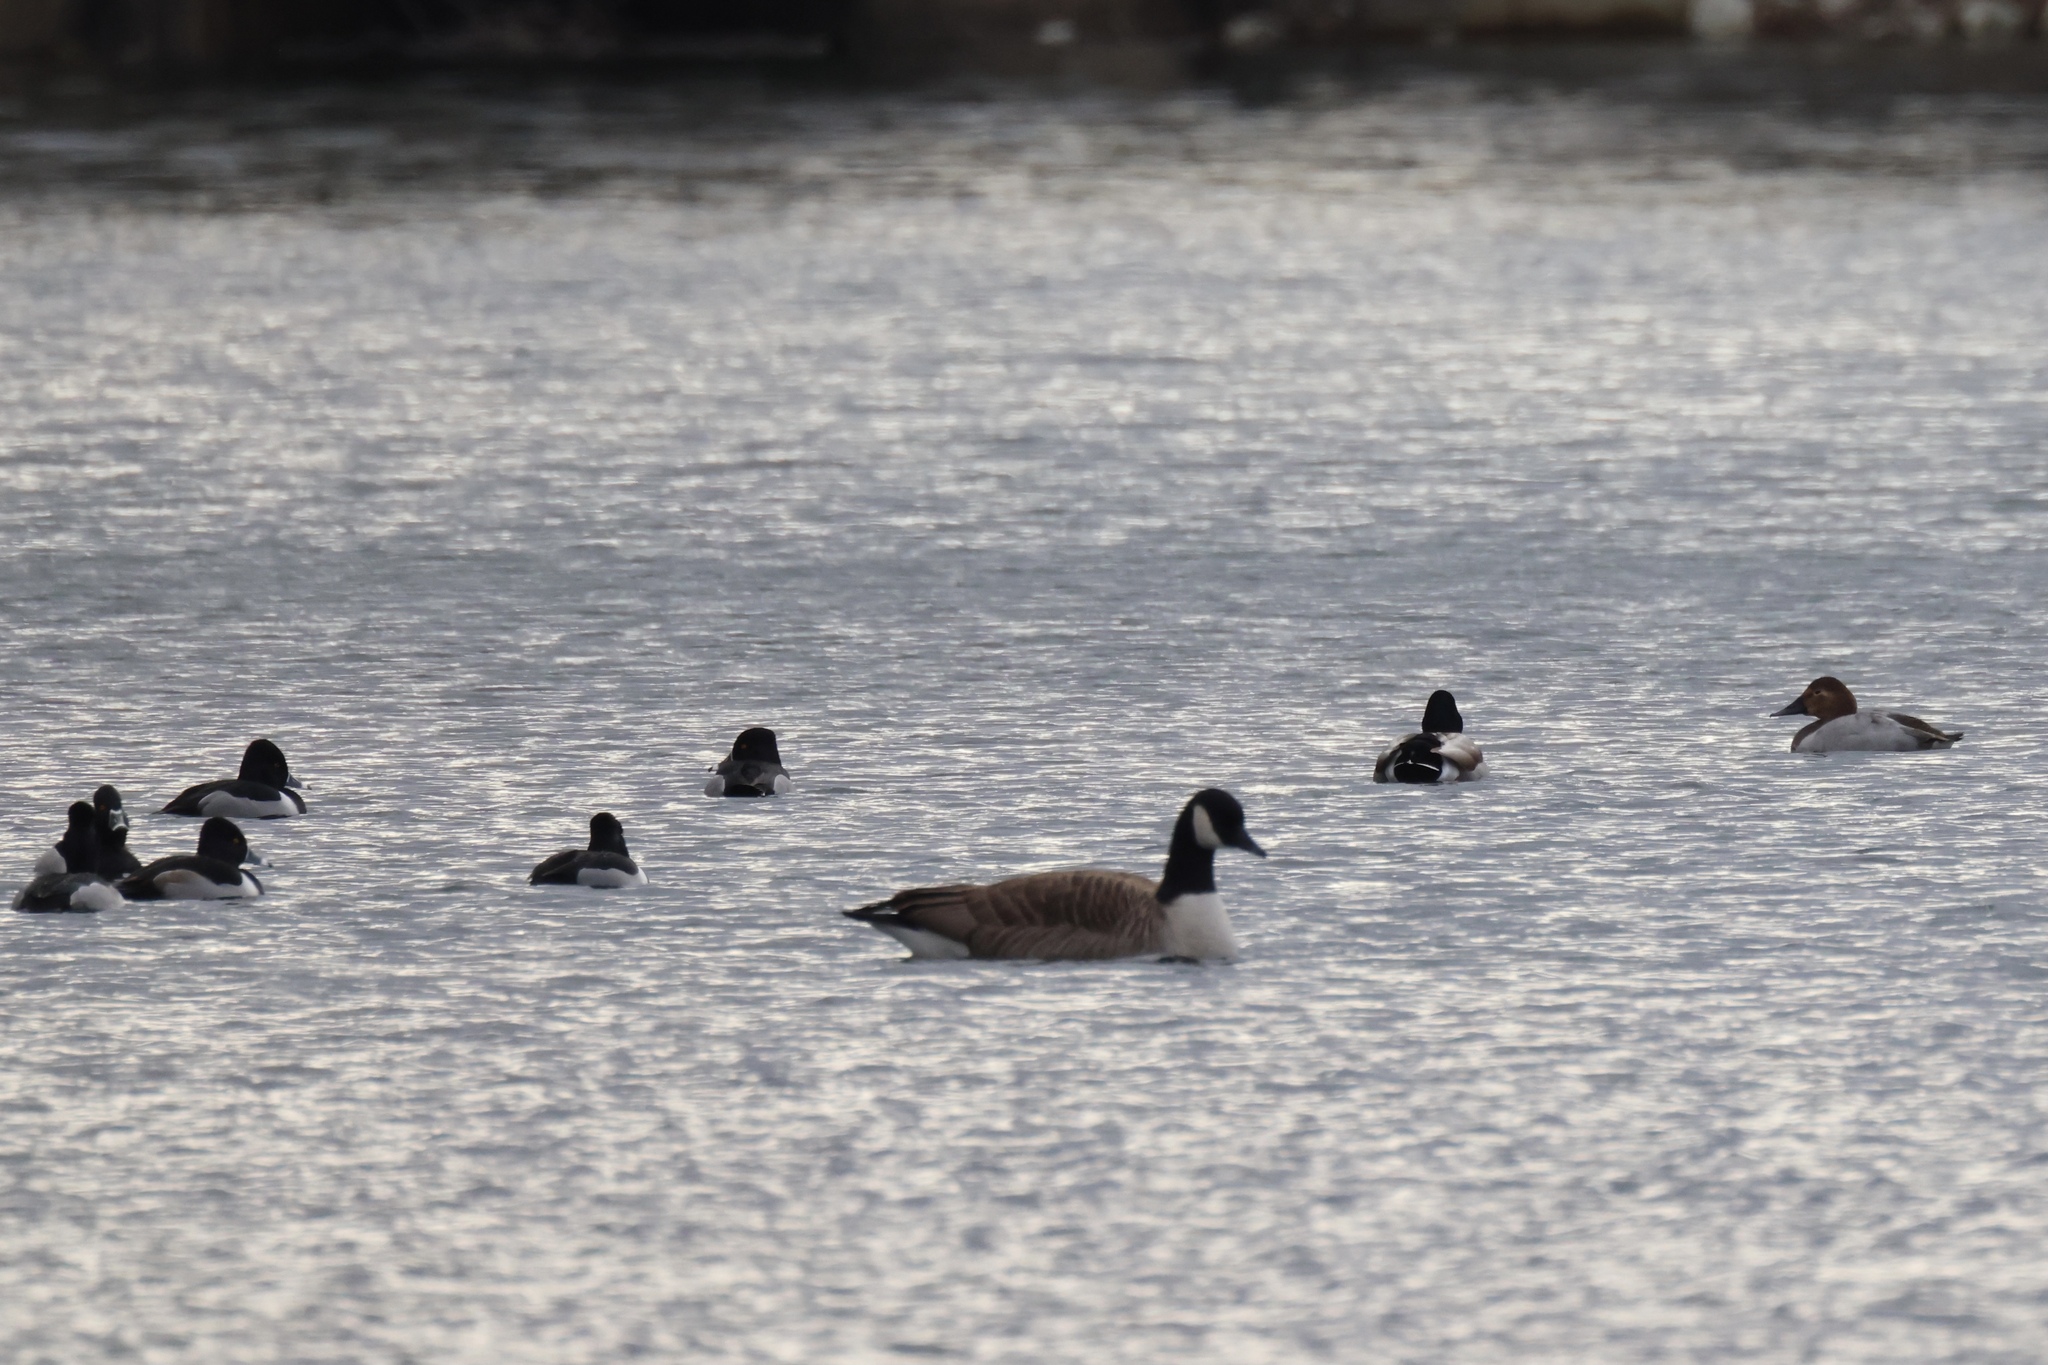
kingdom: Animalia
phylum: Chordata
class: Aves
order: Anseriformes
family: Anatidae
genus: Anas
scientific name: Anas platyrhynchos
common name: Mallard
